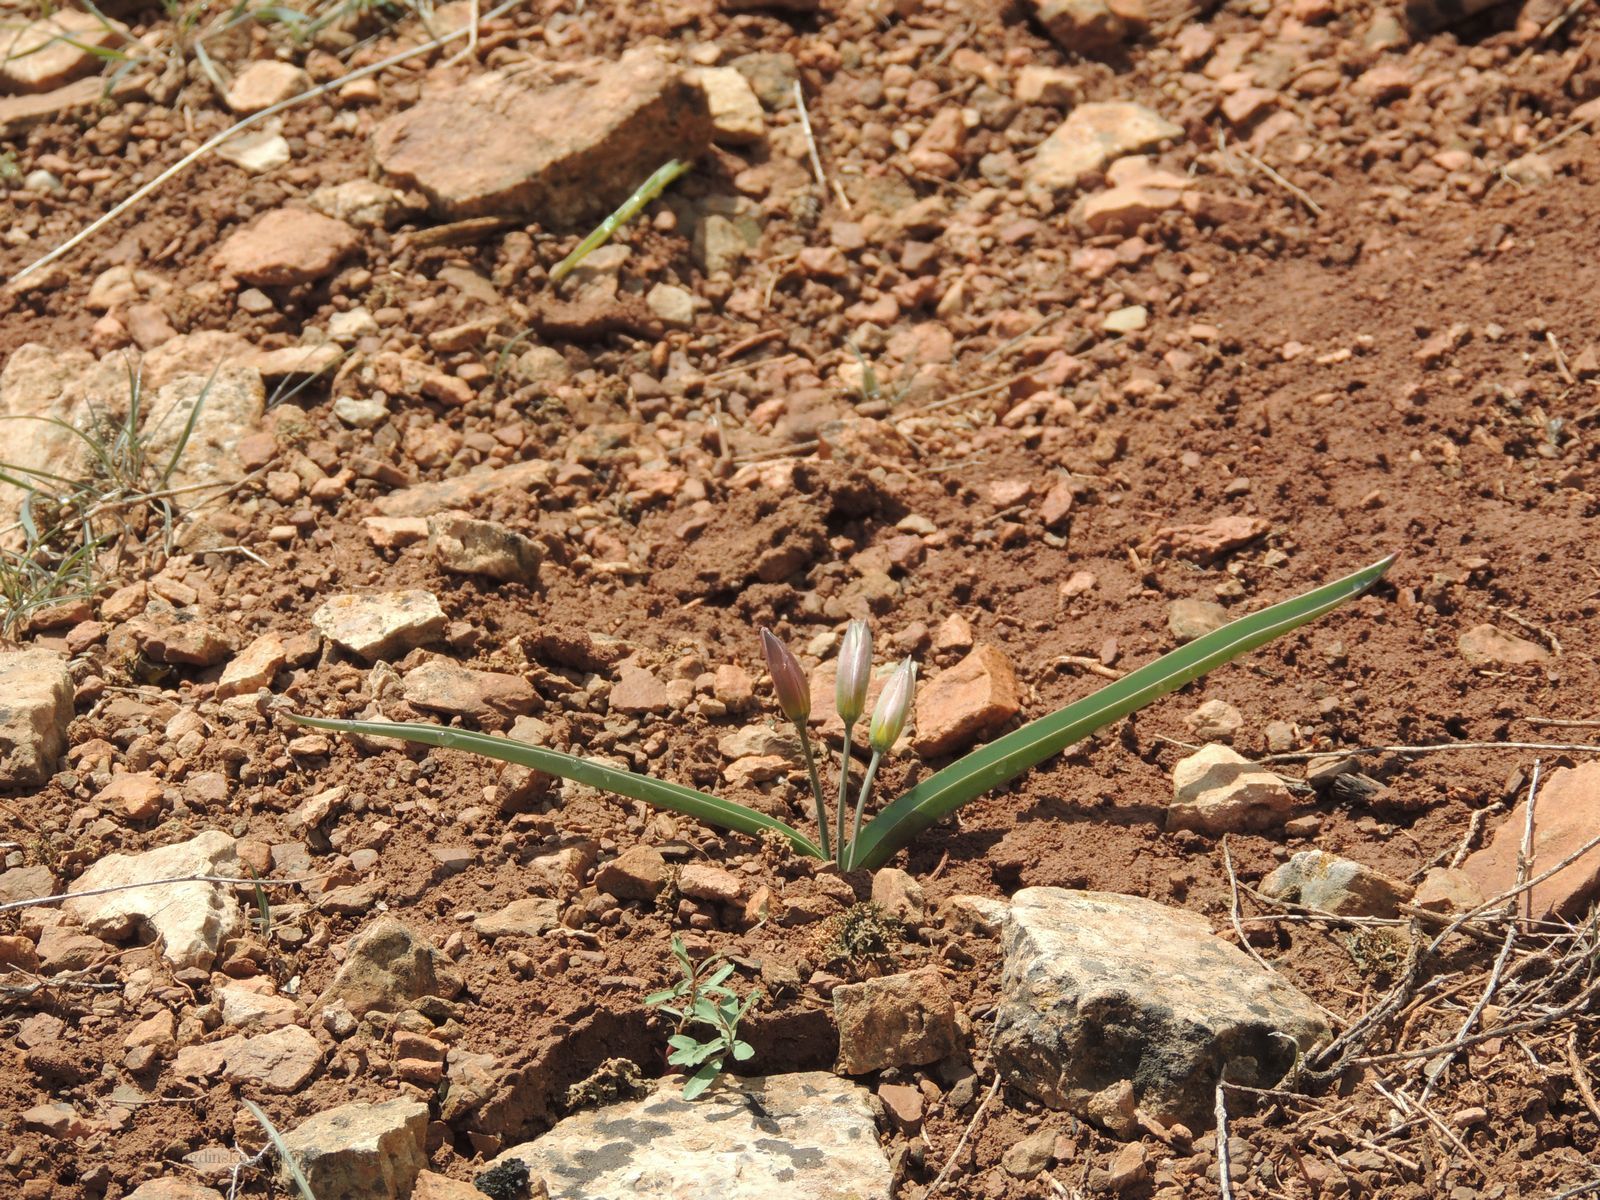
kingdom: Plantae
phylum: Tracheophyta
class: Liliopsida
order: Liliales
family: Liliaceae
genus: Tulipa
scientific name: Tulipa biflora
